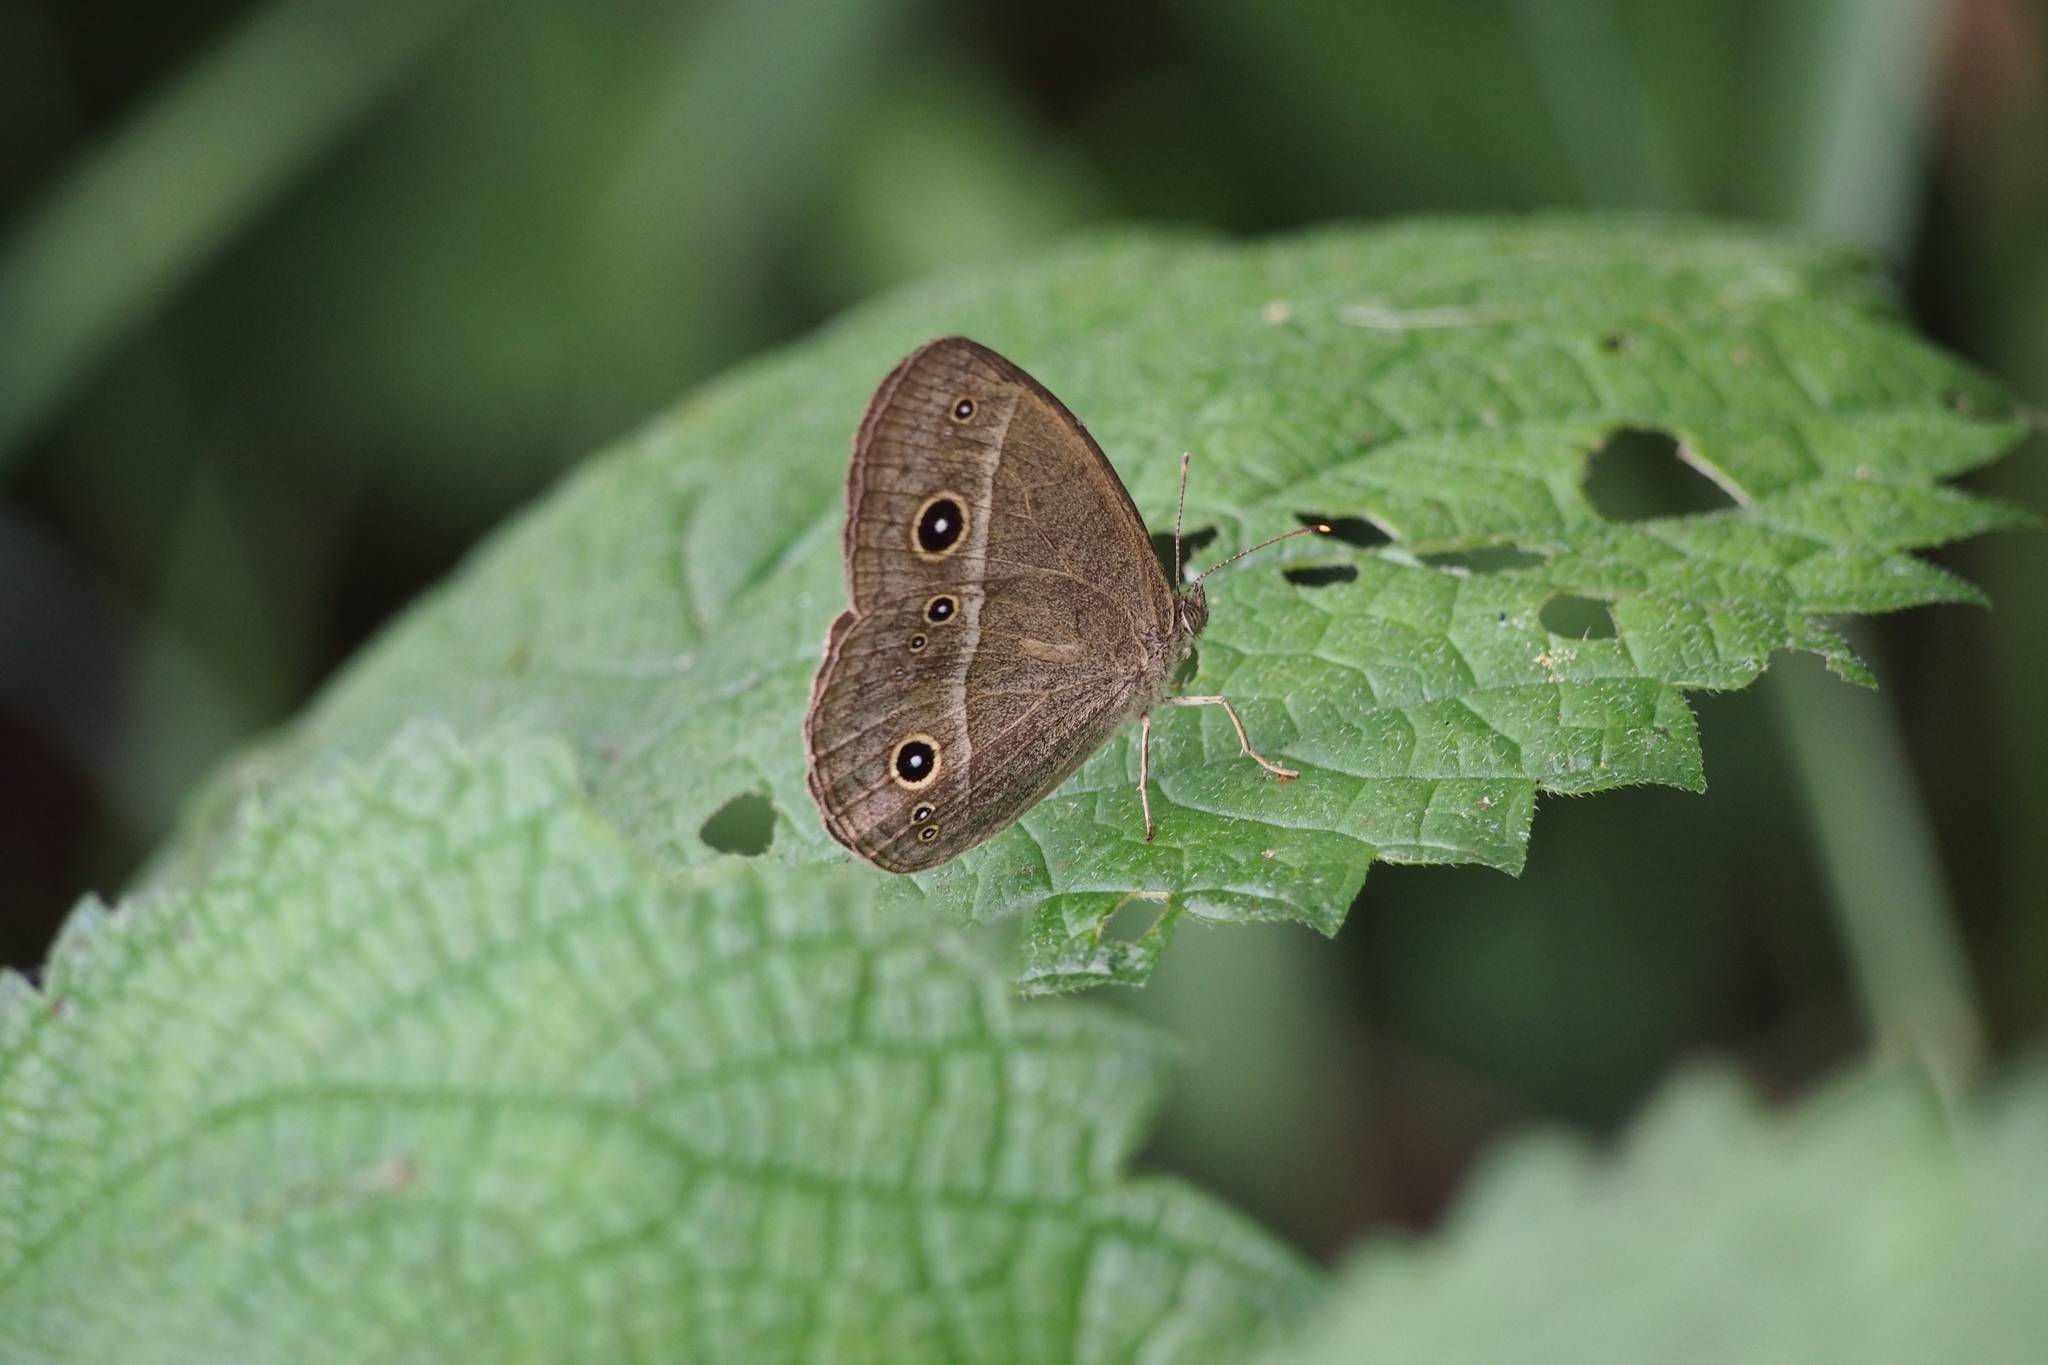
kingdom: Animalia
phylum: Arthropoda
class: Insecta
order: Lepidoptera
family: Nymphalidae
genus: Mycalesis
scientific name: Mycalesis gotama
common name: Chinese bushbrown
